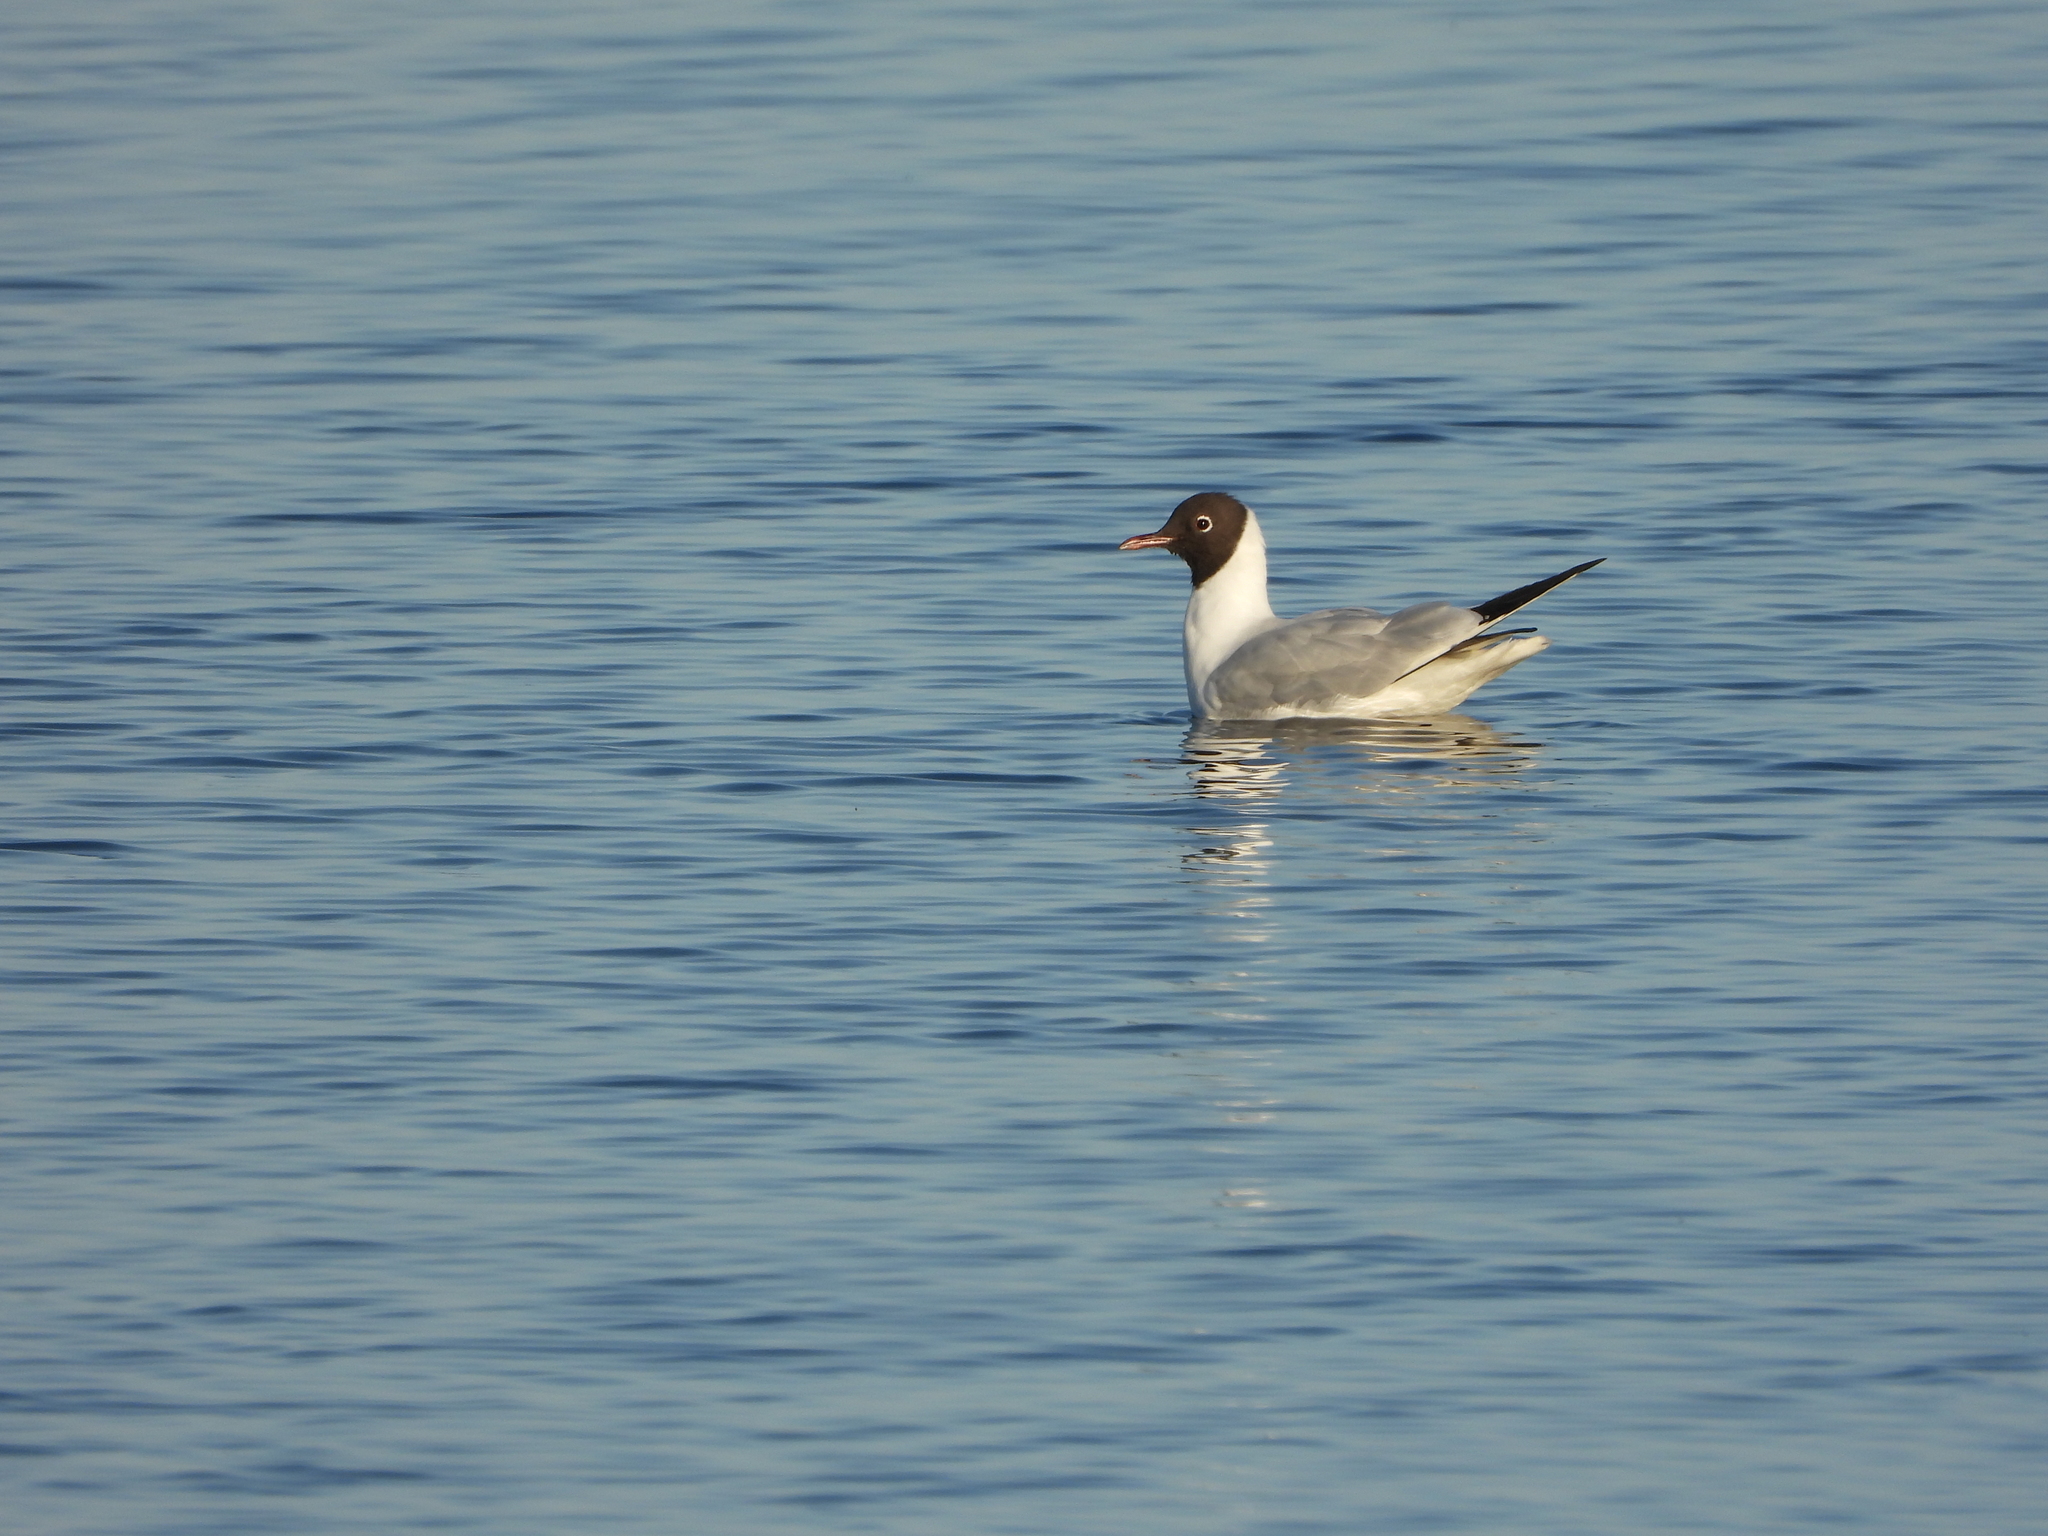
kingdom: Animalia
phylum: Chordata
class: Aves
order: Charadriiformes
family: Laridae
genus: Chroicocephalus
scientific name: Chroicocephalus ridibundus
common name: Black-headed gull
